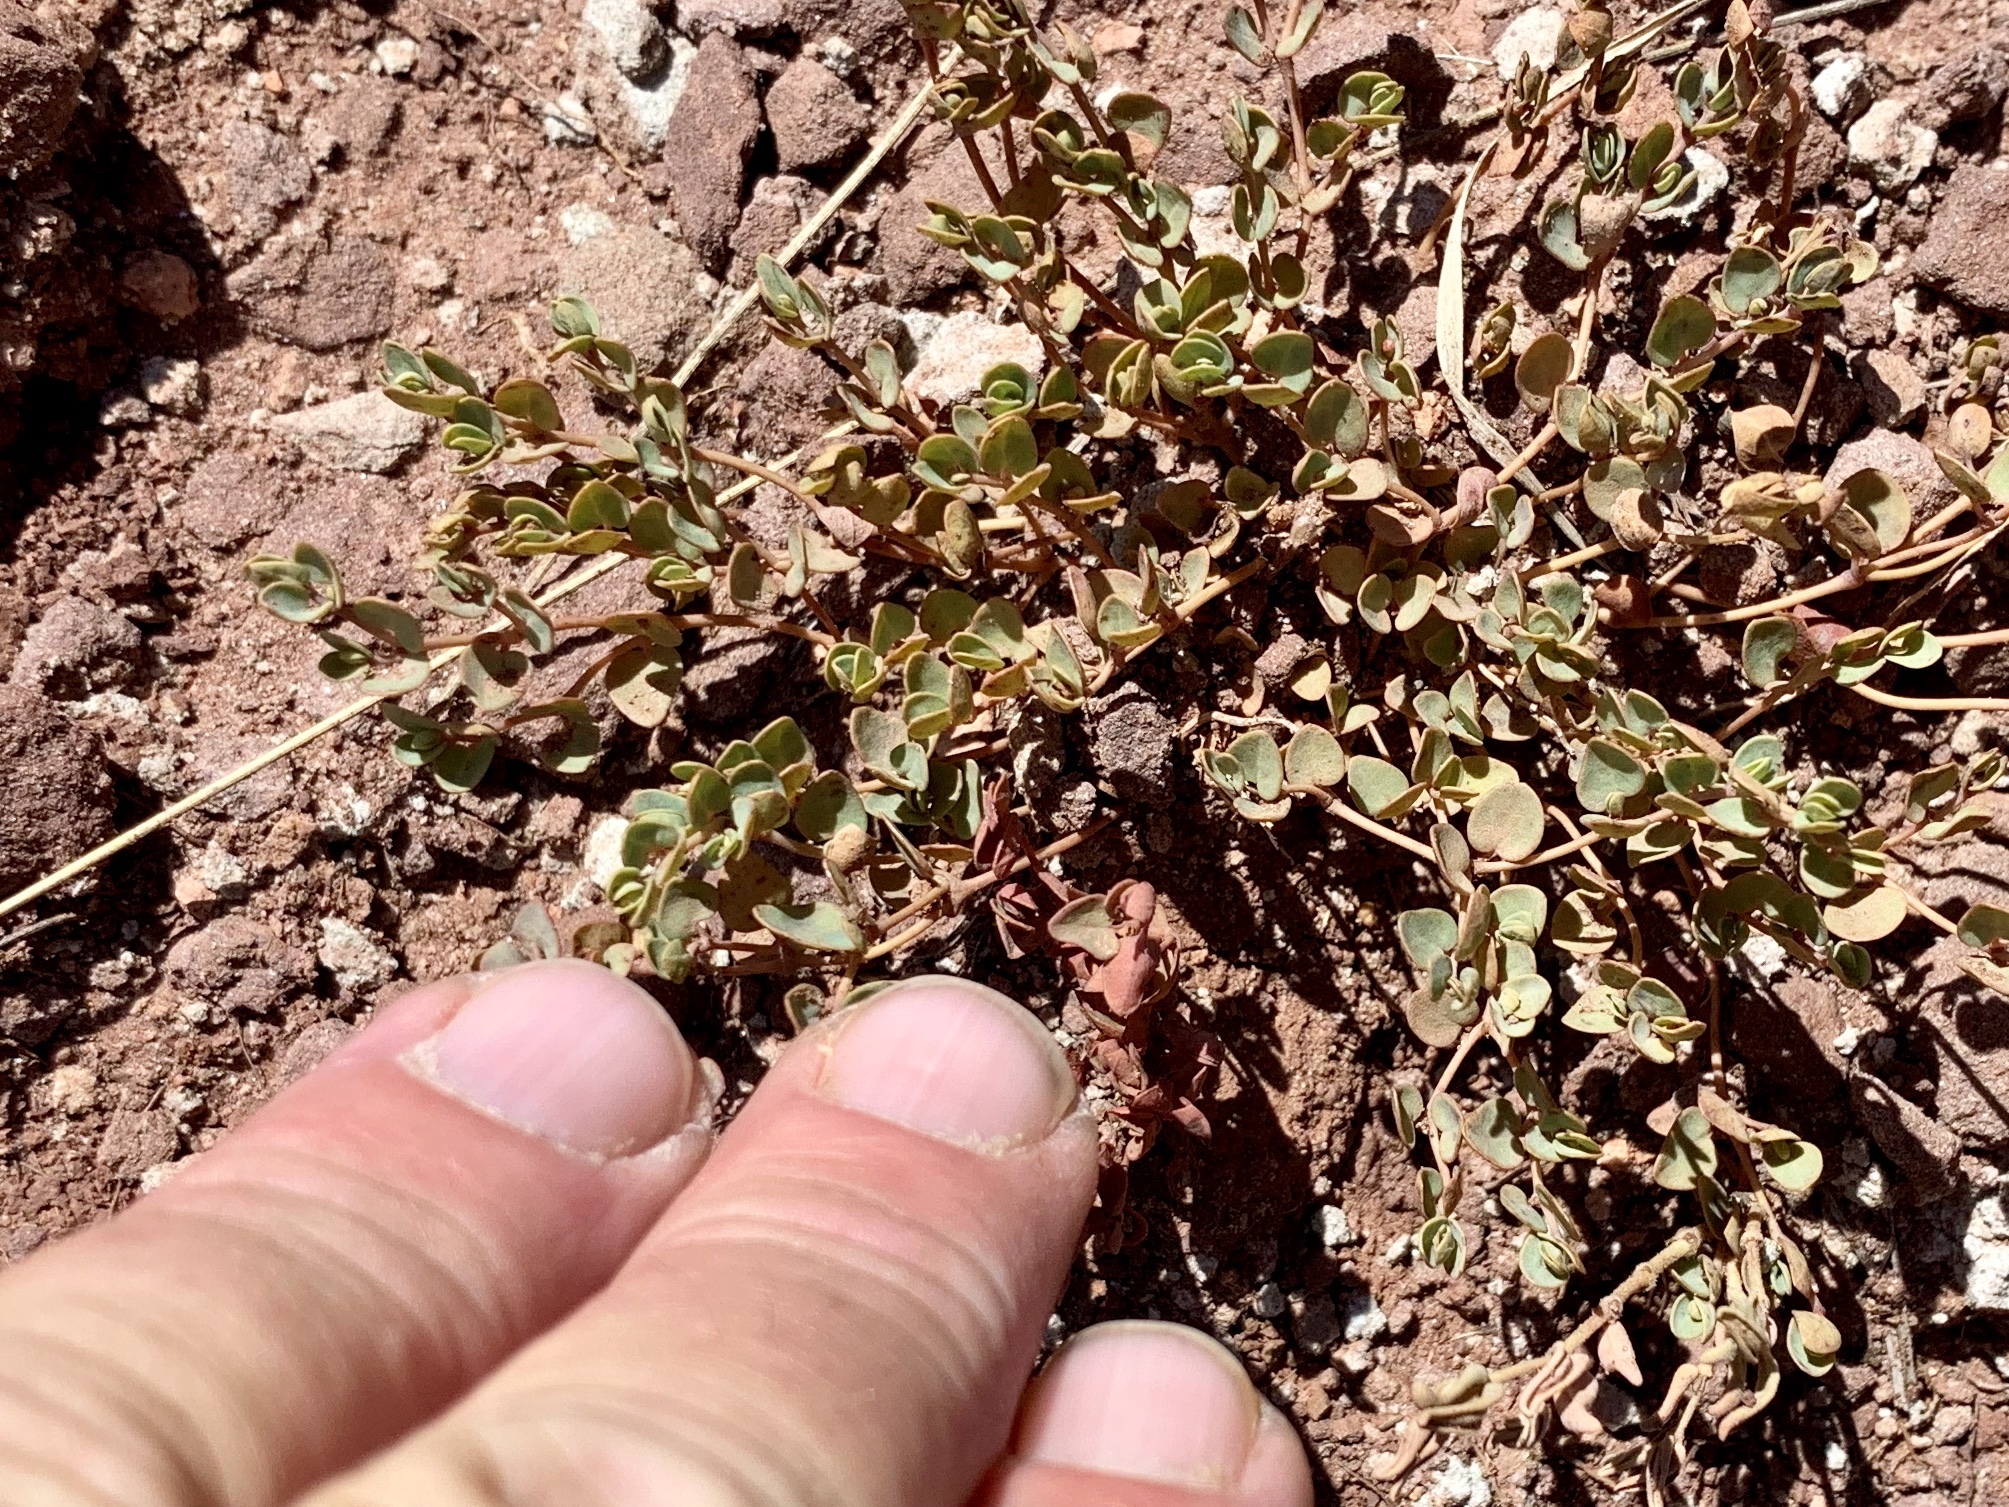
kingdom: Plantae
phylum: Tracheophyta
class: Magnoliopsida
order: Malpighiales
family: Euphorbiaceae
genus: Euphorbia
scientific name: Euphorbia fendleri
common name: Fendler's euphorbia
